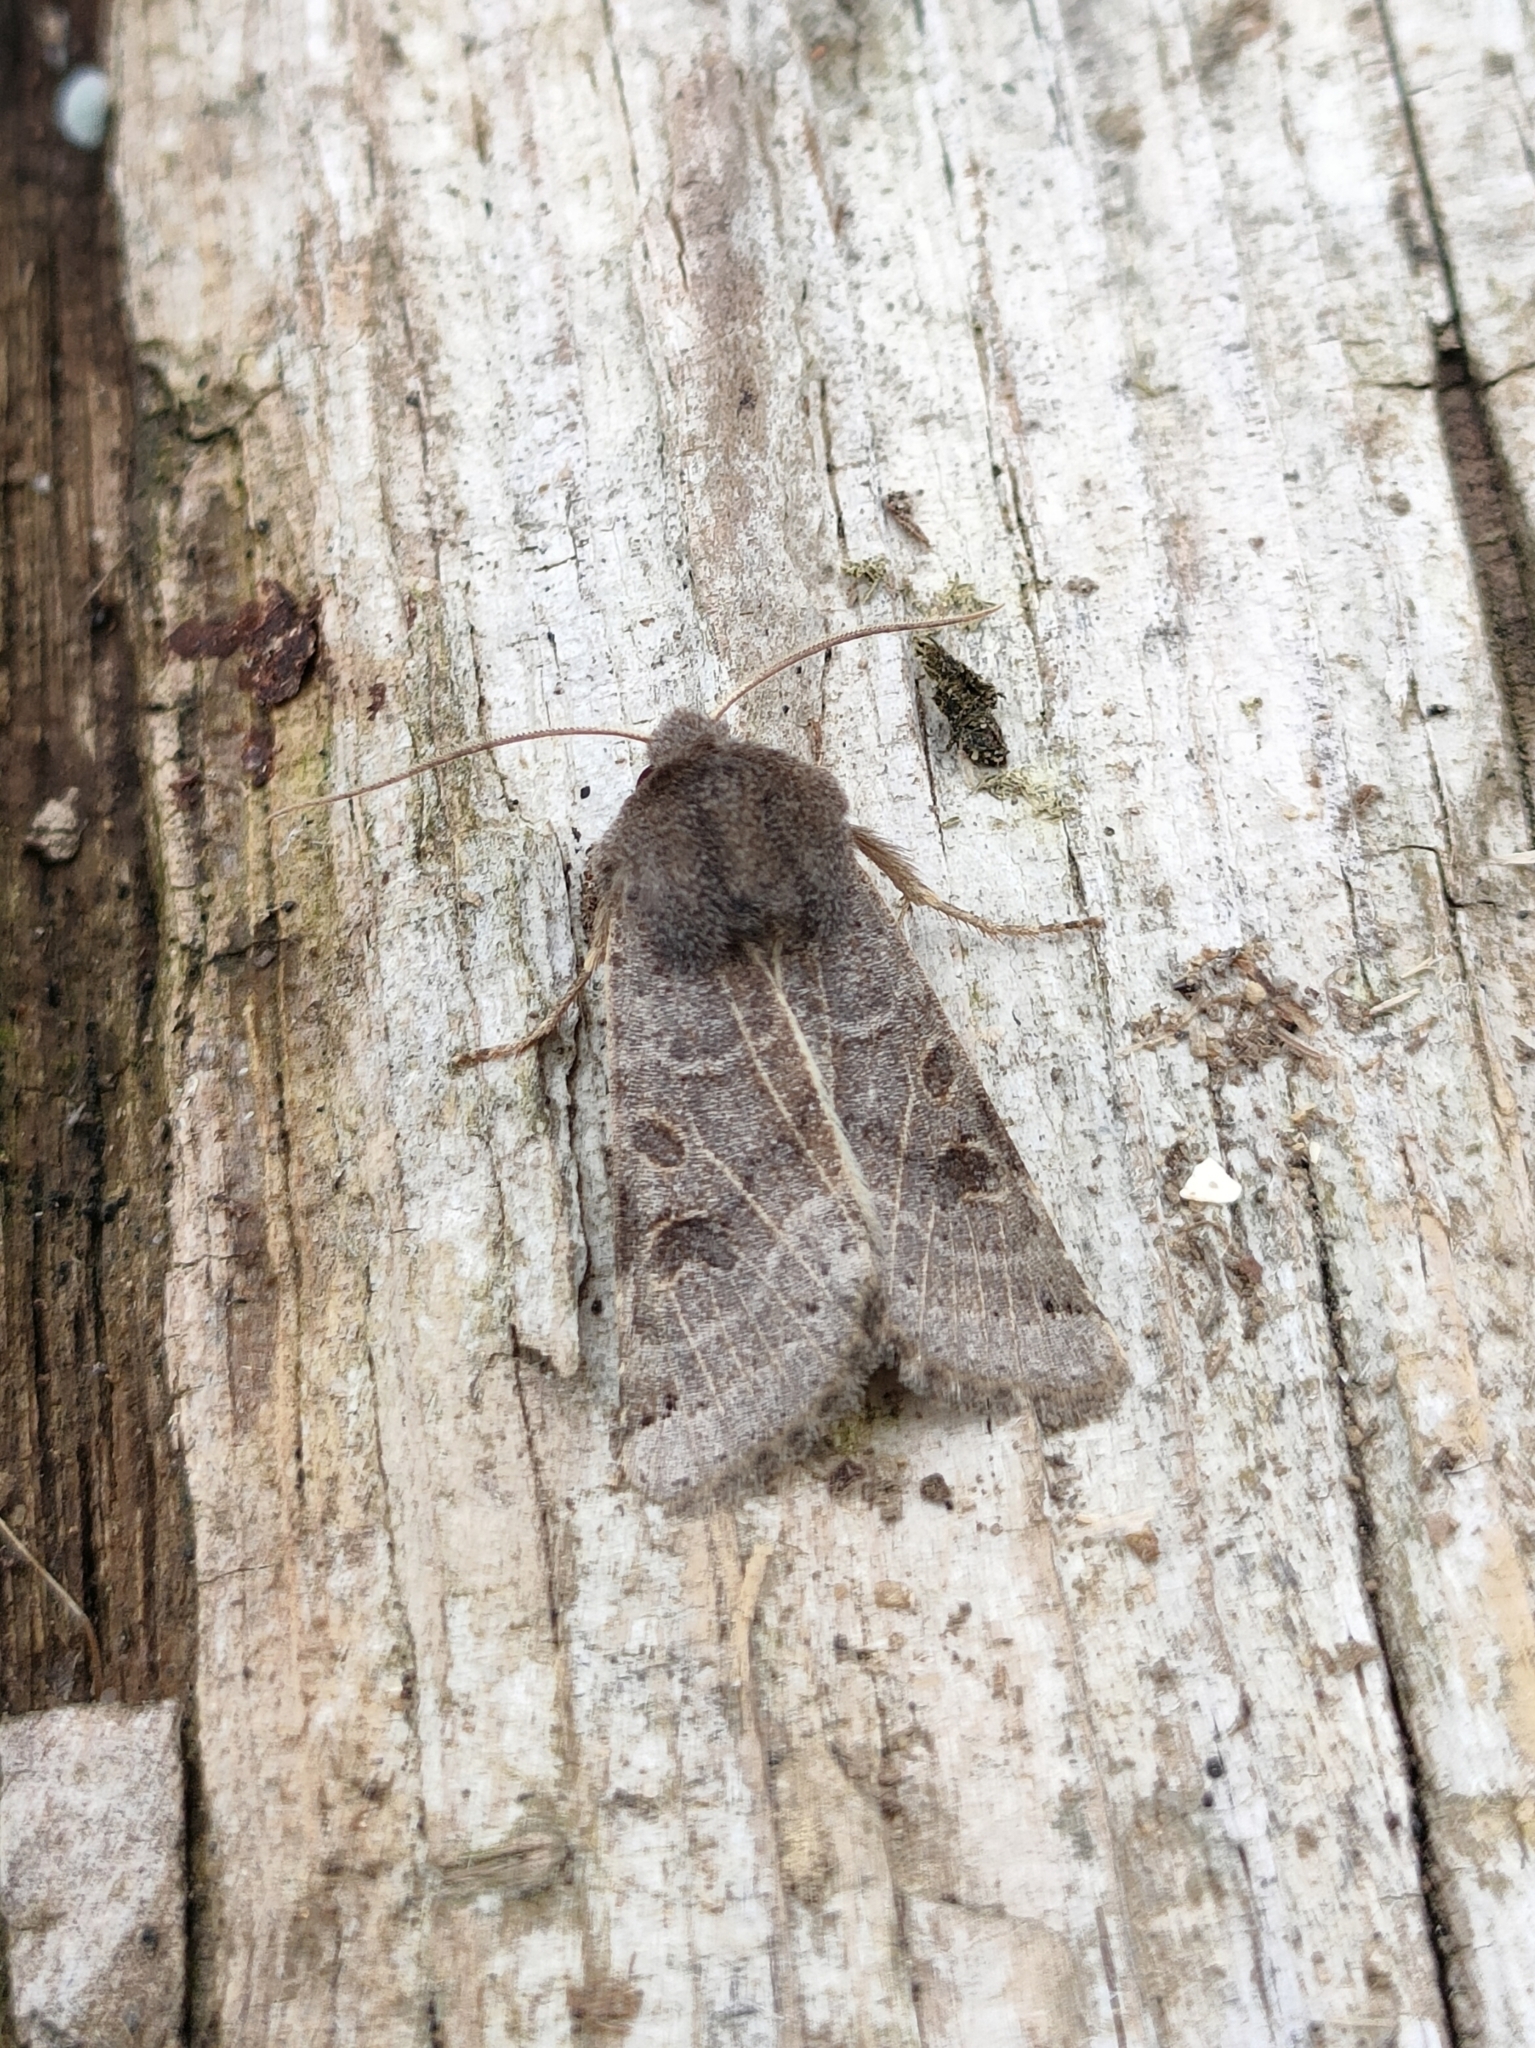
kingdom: Animalia
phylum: Arthropoda
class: Insecta
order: Lepidoptera
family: Noctuidae
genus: Agrochola
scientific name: Agrochola lunosa
